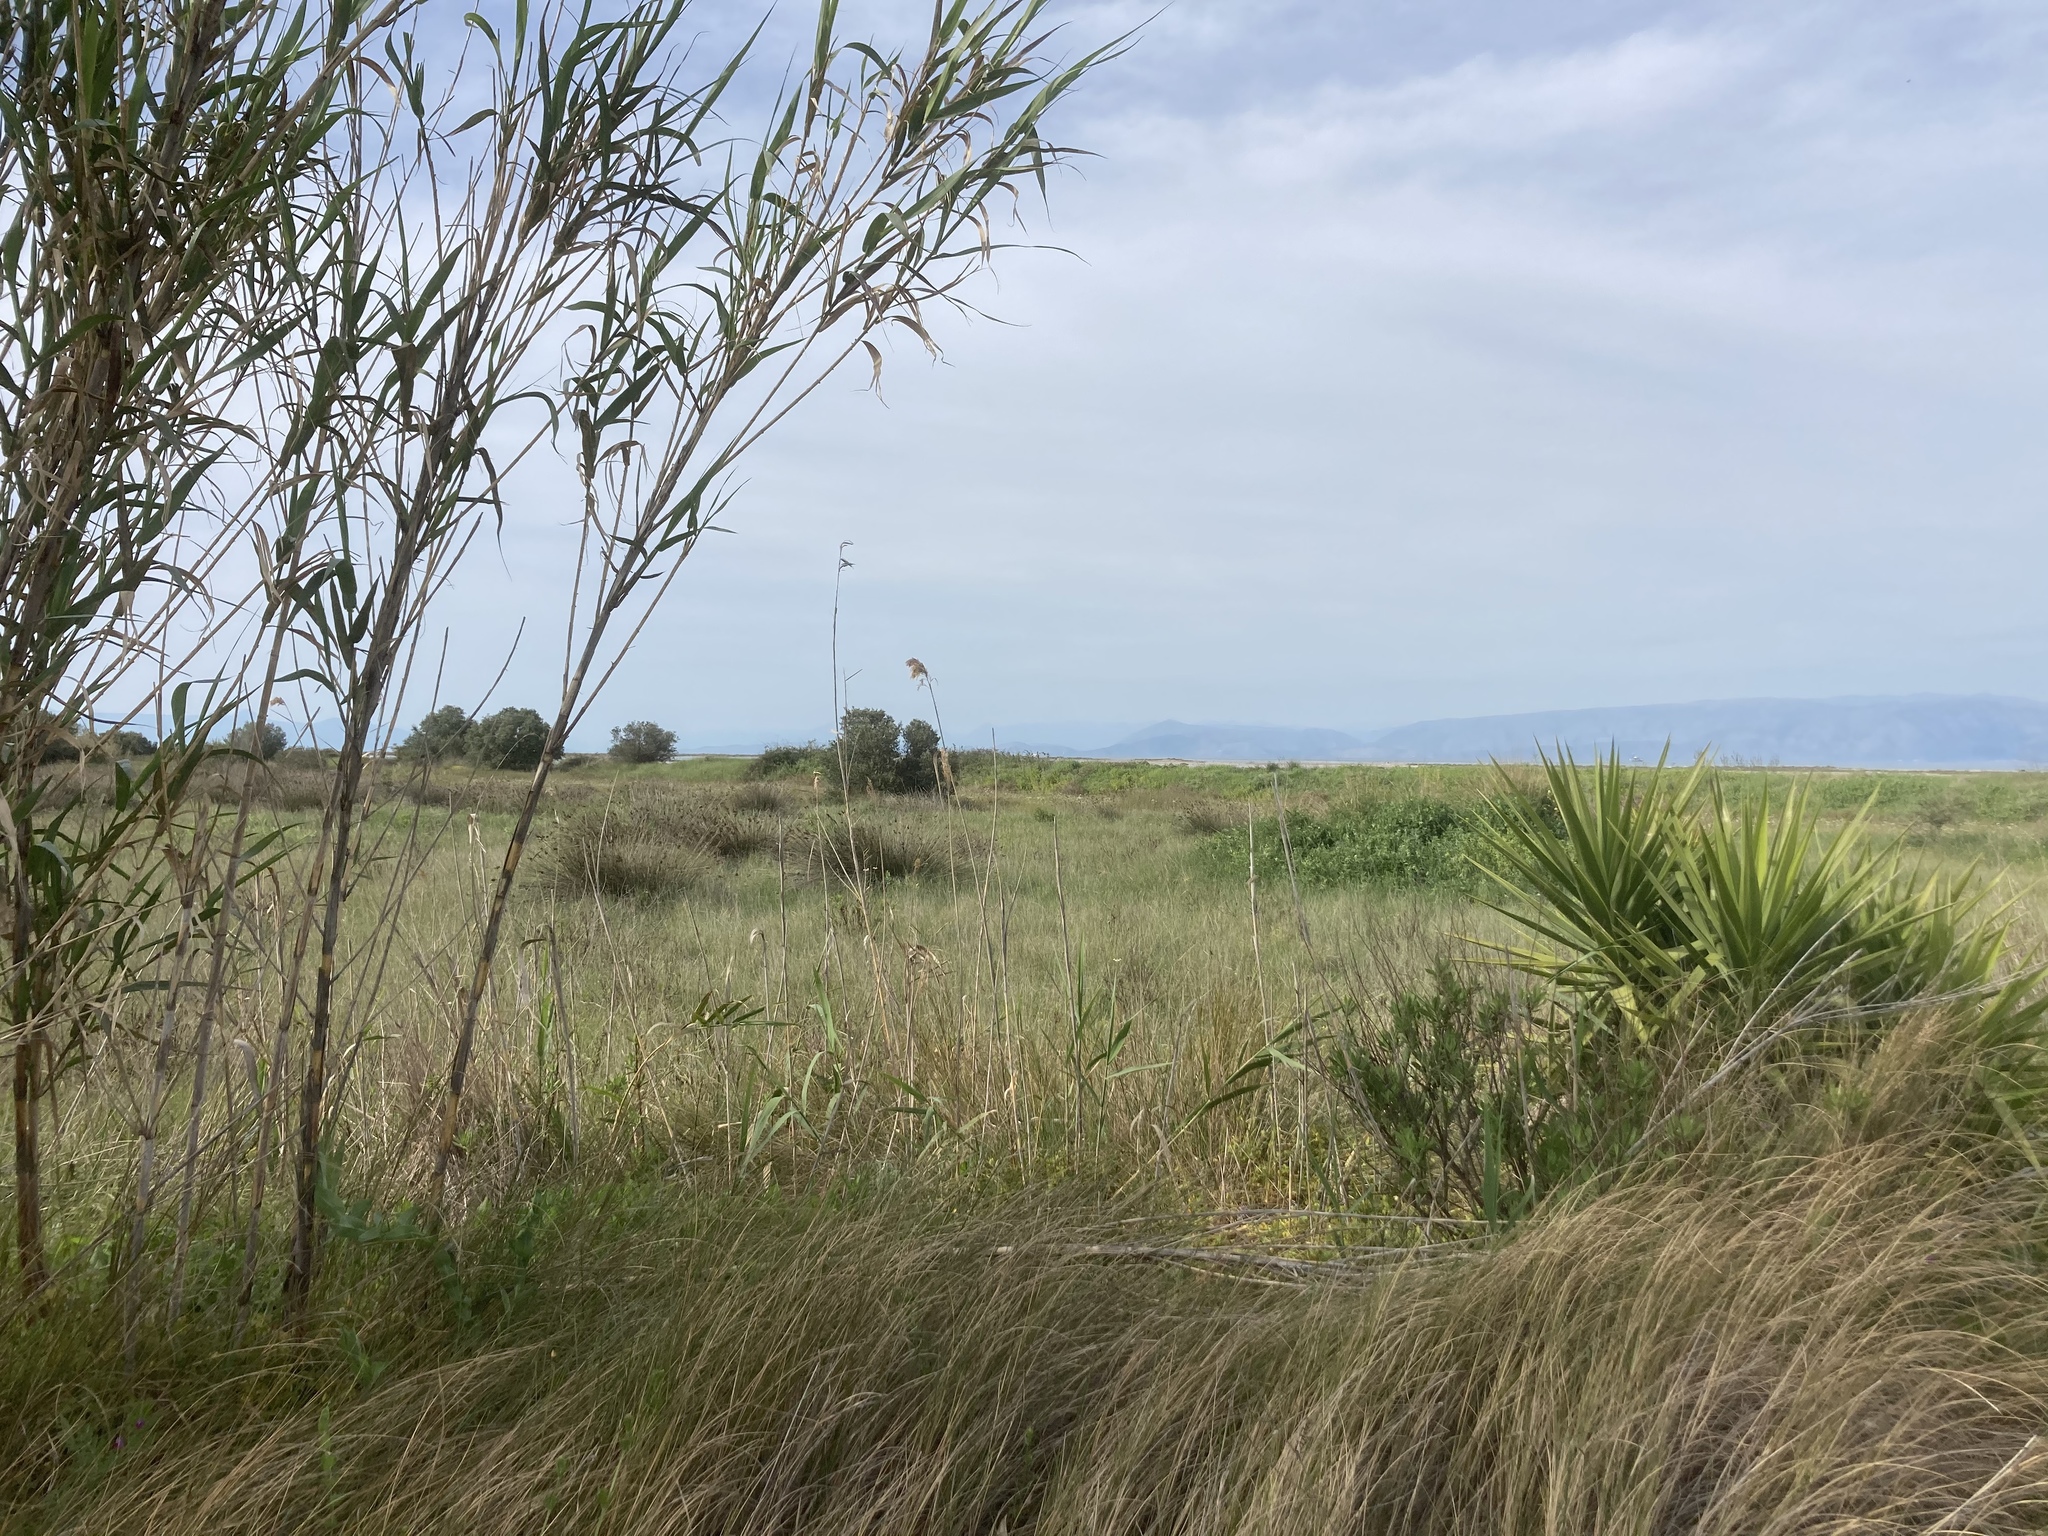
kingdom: Plantae
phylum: Tracheophyta
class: Liliopsida
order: Poales
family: Poaceae
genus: Phragmites
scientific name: Phragmites australis
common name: Common reed
